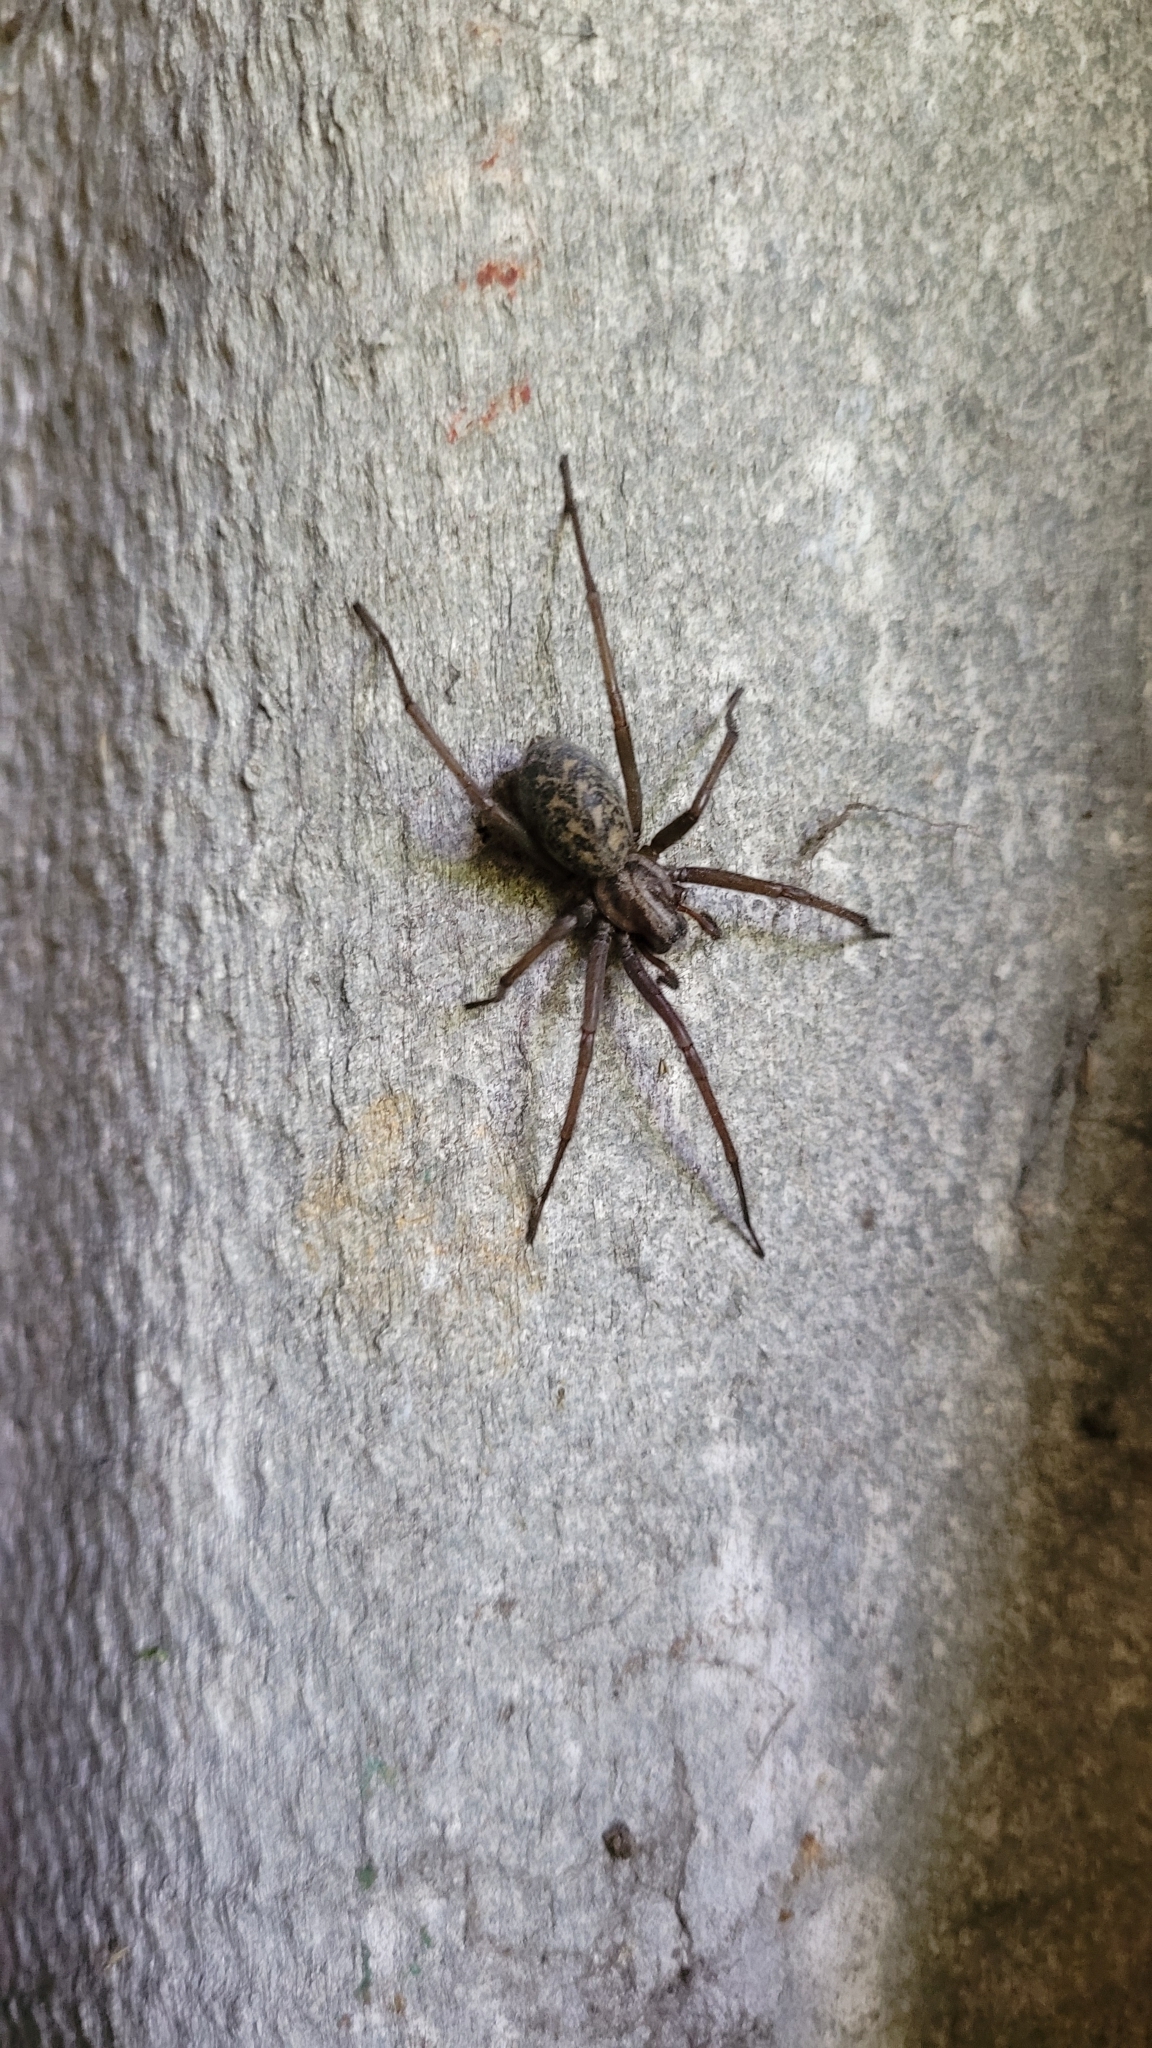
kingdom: Animalia
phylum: Arthropoda
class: Arachnida
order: Araneae
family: Agelenidae
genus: Eratigena
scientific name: Eratigena atrica
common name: Giant house spider
